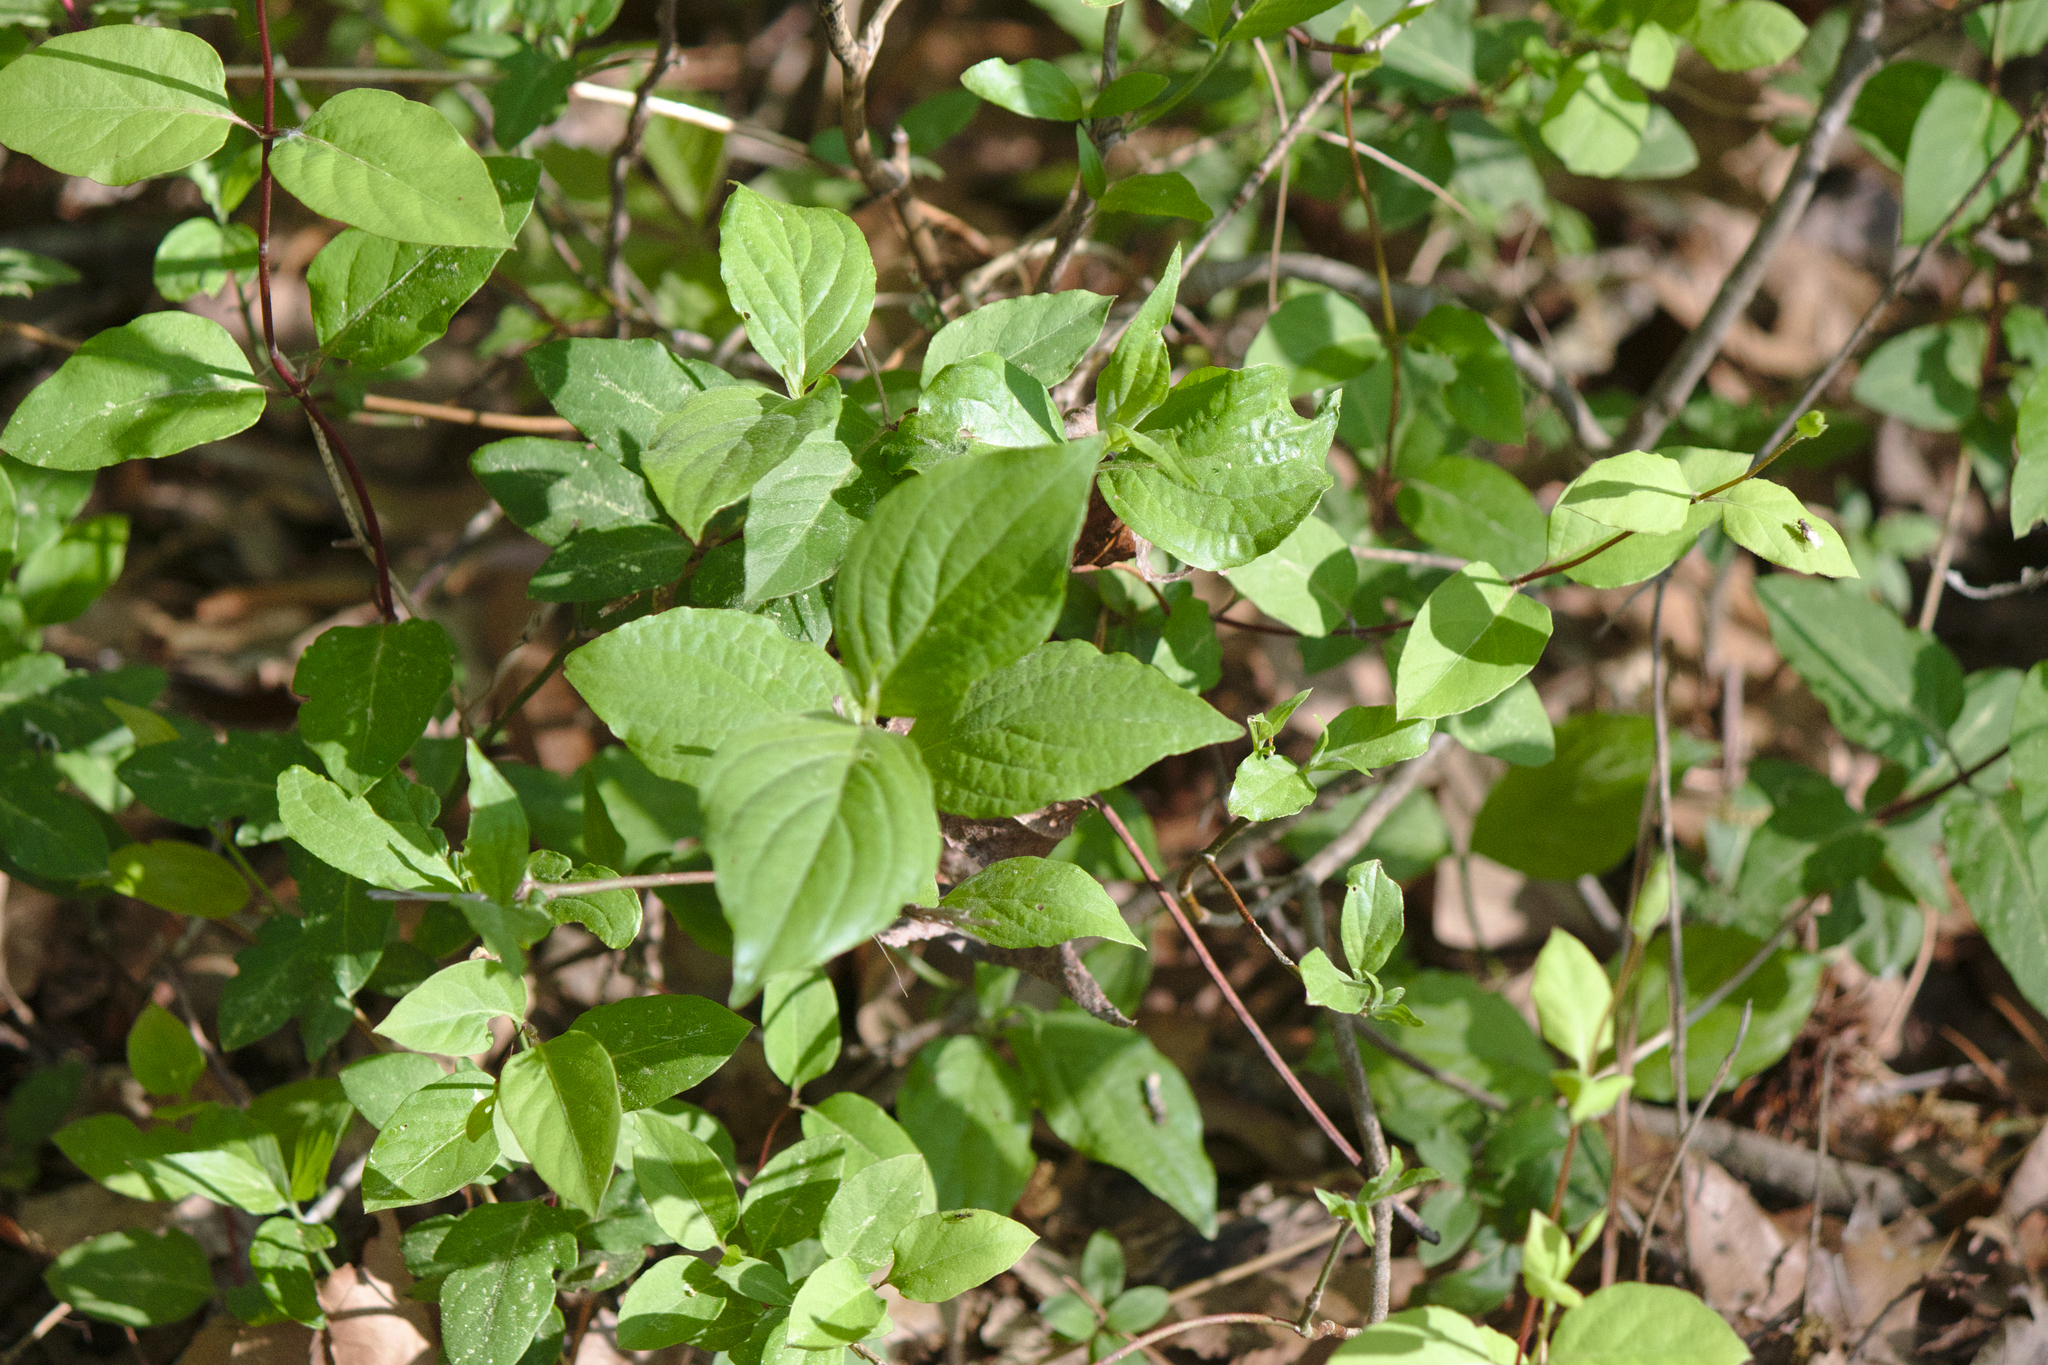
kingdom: Plantae
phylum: Tracheophyta
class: Magnoliopsida
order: Cornales
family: Cornaceae
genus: Cornus
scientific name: Cornus florida
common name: Flowering dogwood
